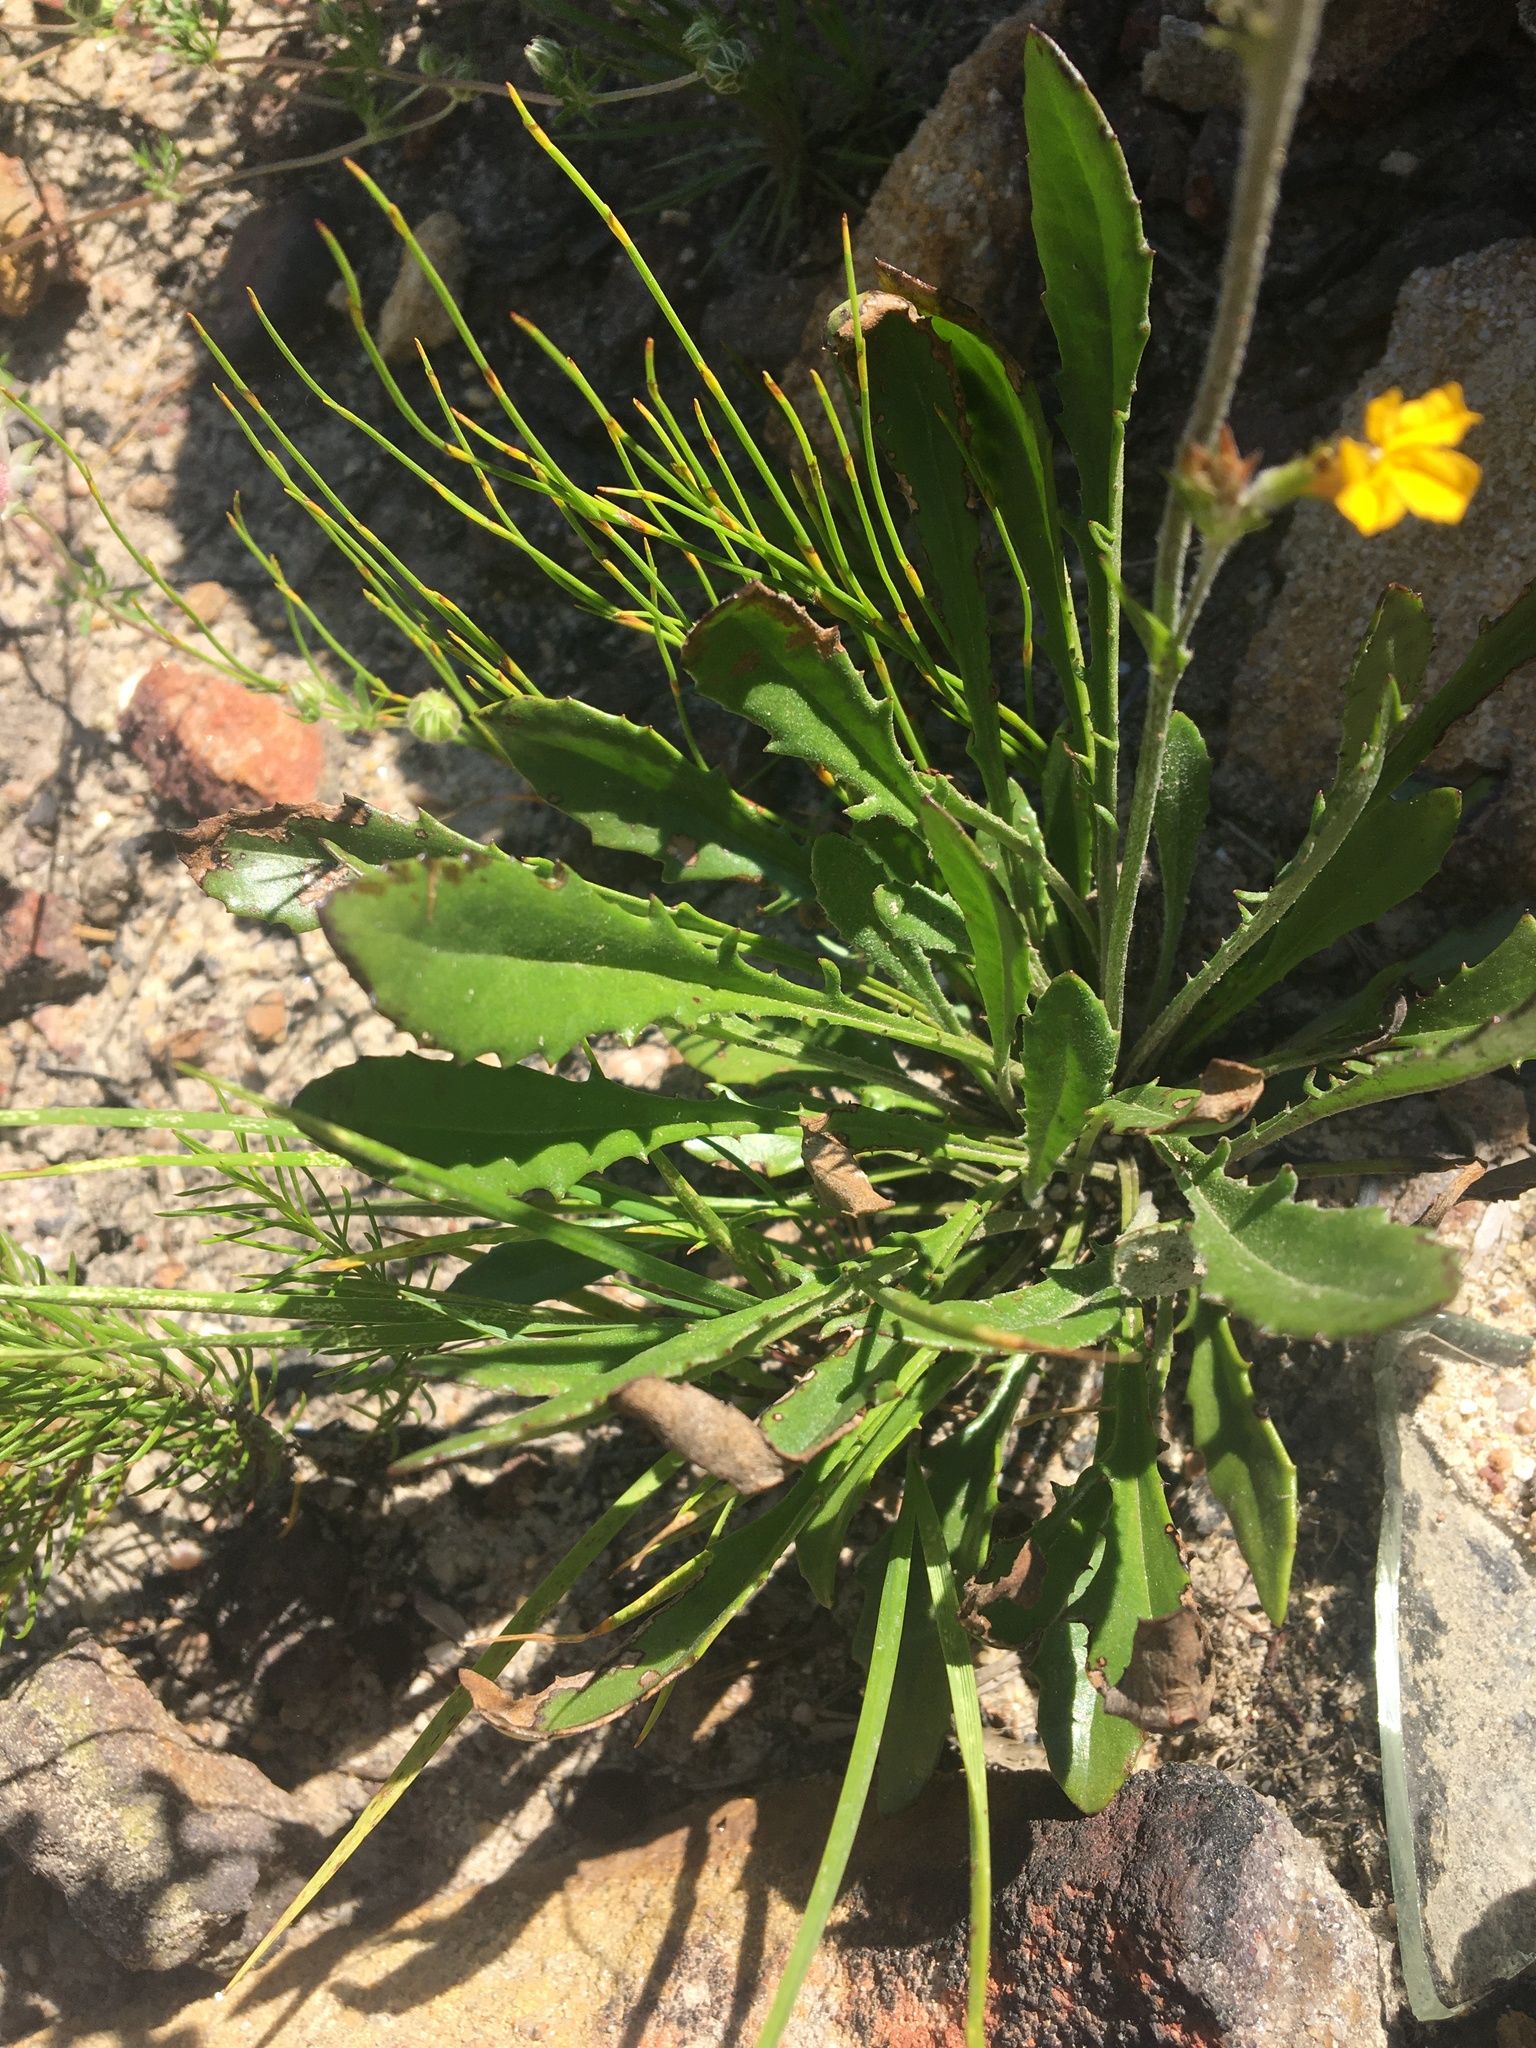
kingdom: Plantae
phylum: Tracheophyta
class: Magnoliopsida
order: Asterales
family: Goodeniaceae
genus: Goodenia
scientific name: Goodenia bellidifolia
